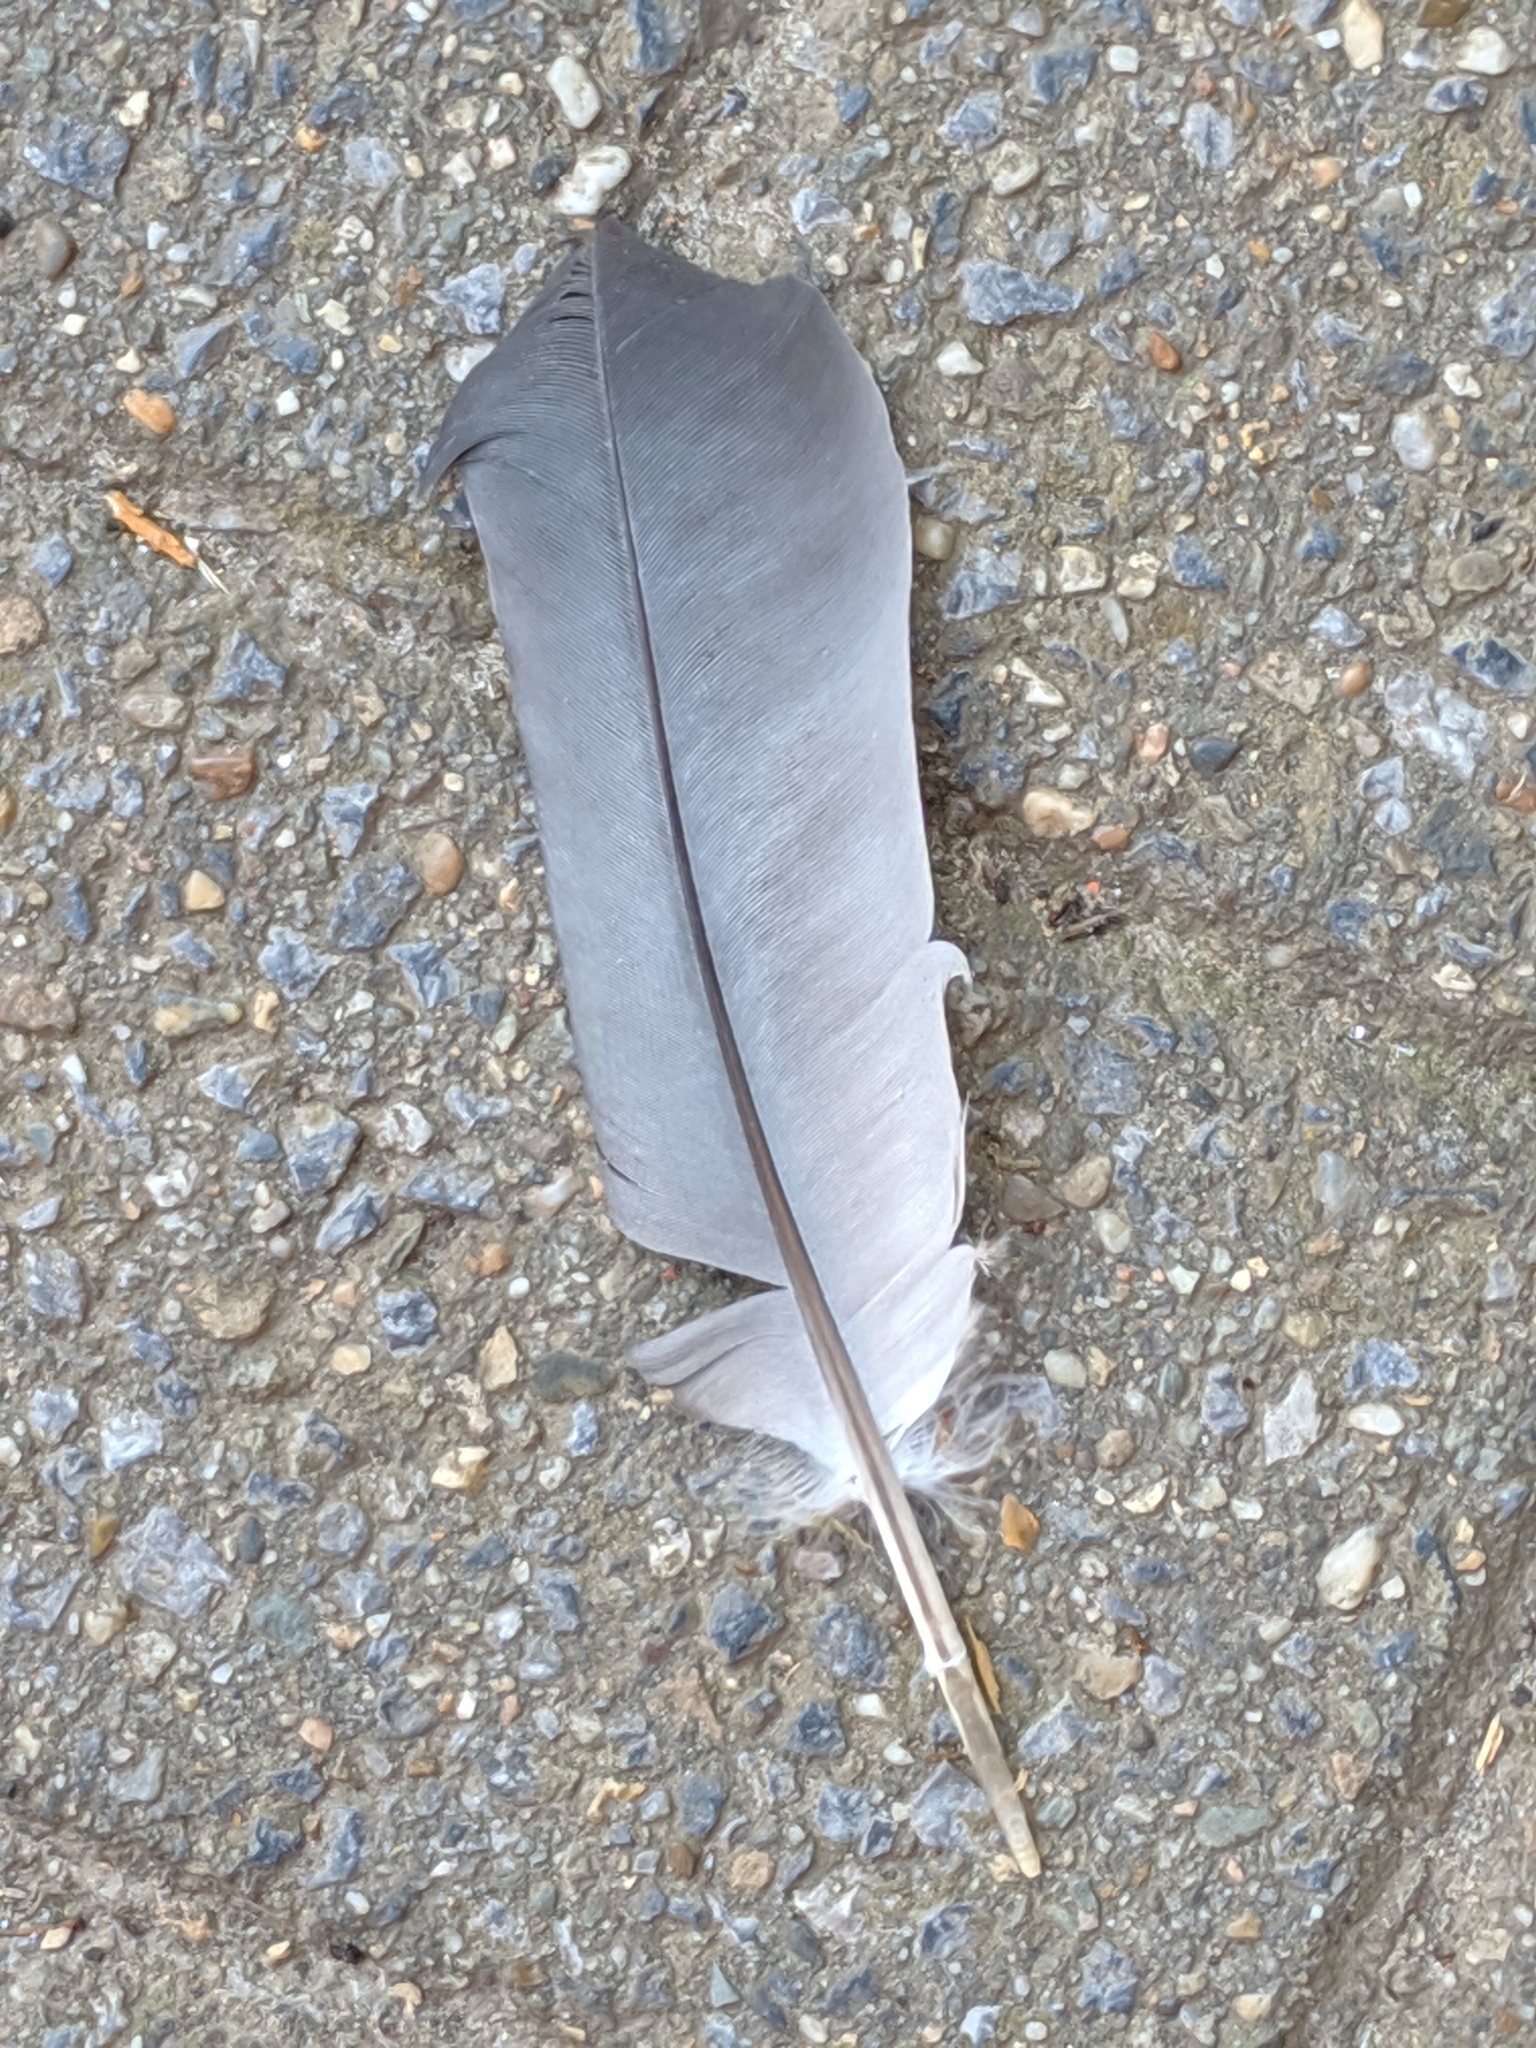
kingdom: Animalia
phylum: Chordata
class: Aves
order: Columbiformes
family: Columbidae
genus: Columba
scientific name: Columba livia
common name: Rock pigeon
